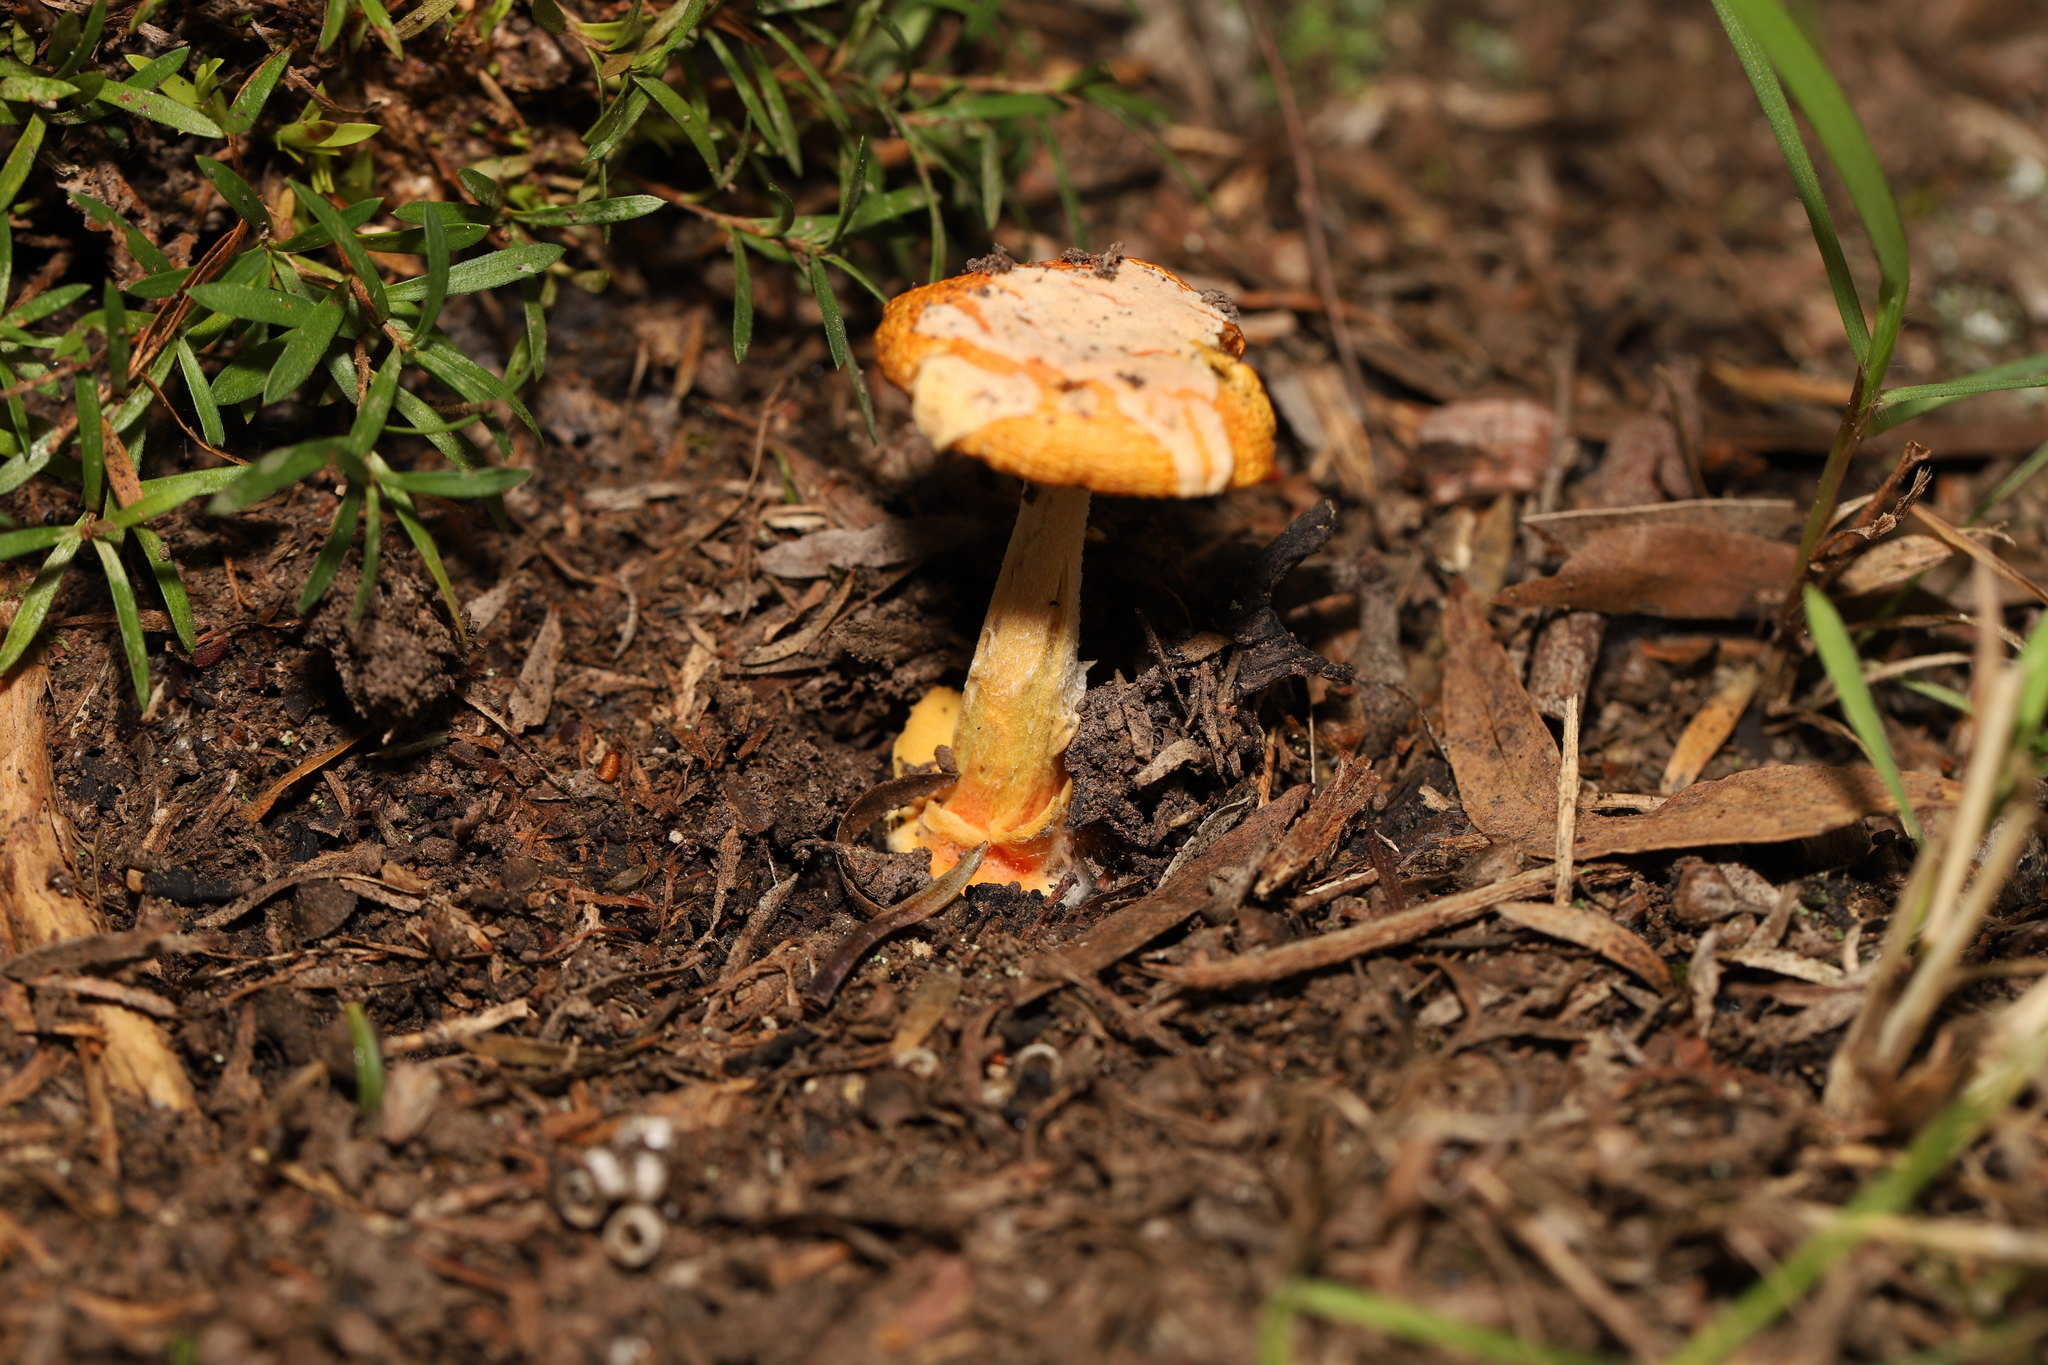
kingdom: Fungi
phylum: Basidiomycota
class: Agaricomycetes
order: Agaricales
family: Amanitaceae
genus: Amanita
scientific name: Amanita xanthocephala
